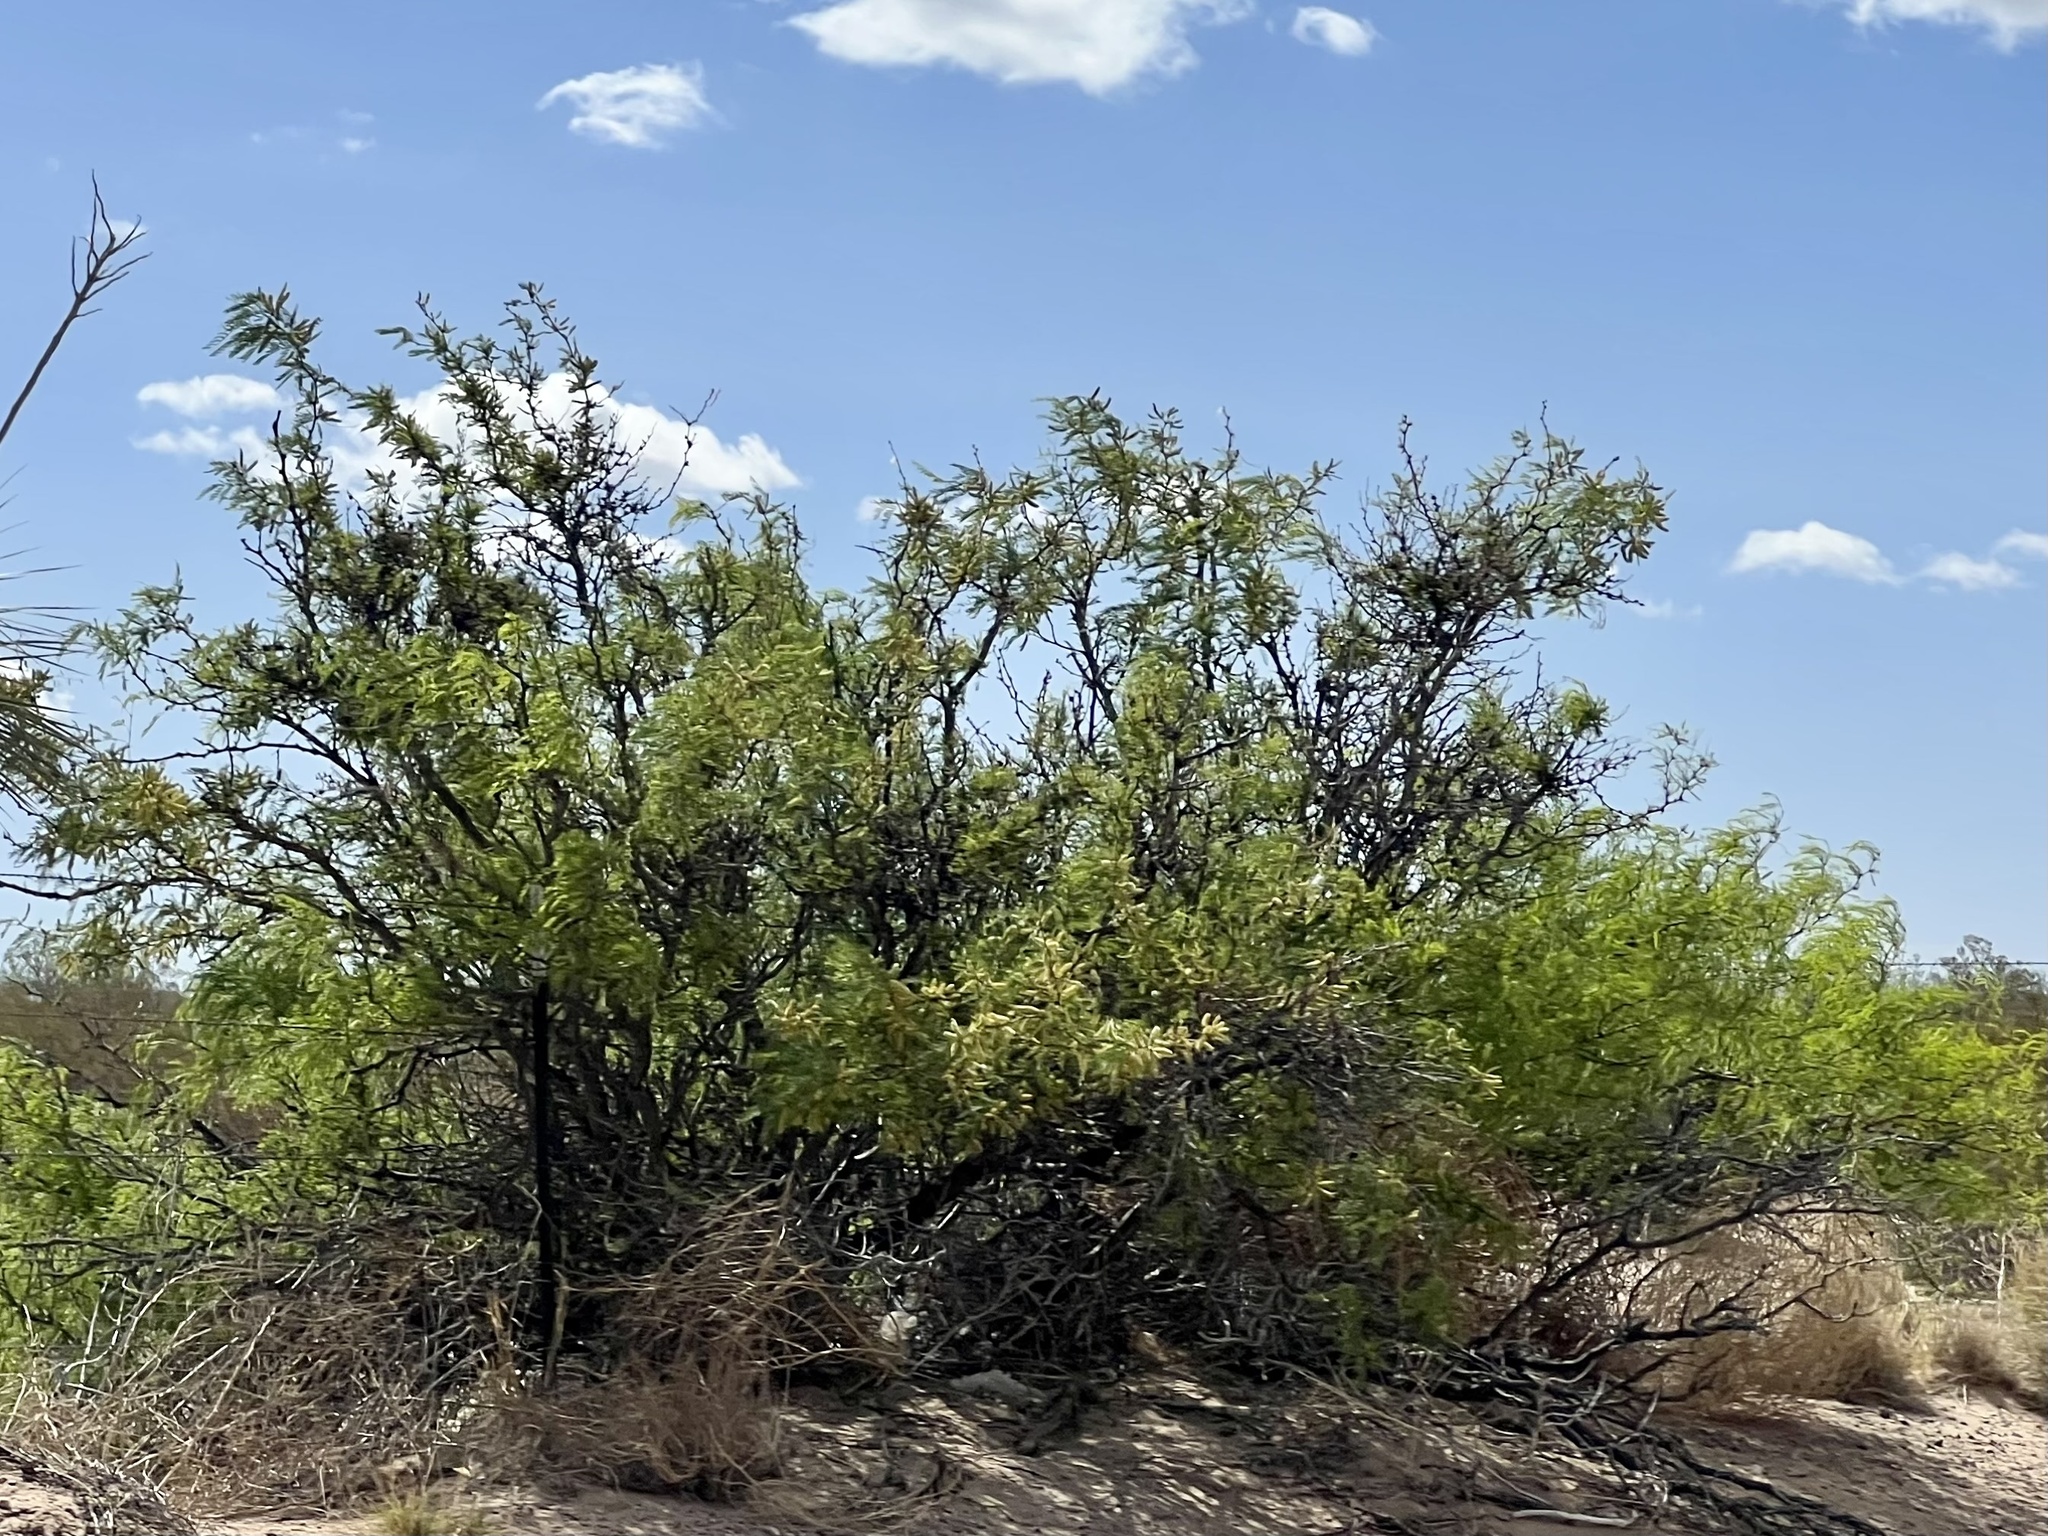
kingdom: Plantae
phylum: Tracheophyta
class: Magnoliopsida
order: Fabales
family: Fabaceae
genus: Prosopis
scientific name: Prosopis glandulosa
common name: Honey mesquite
